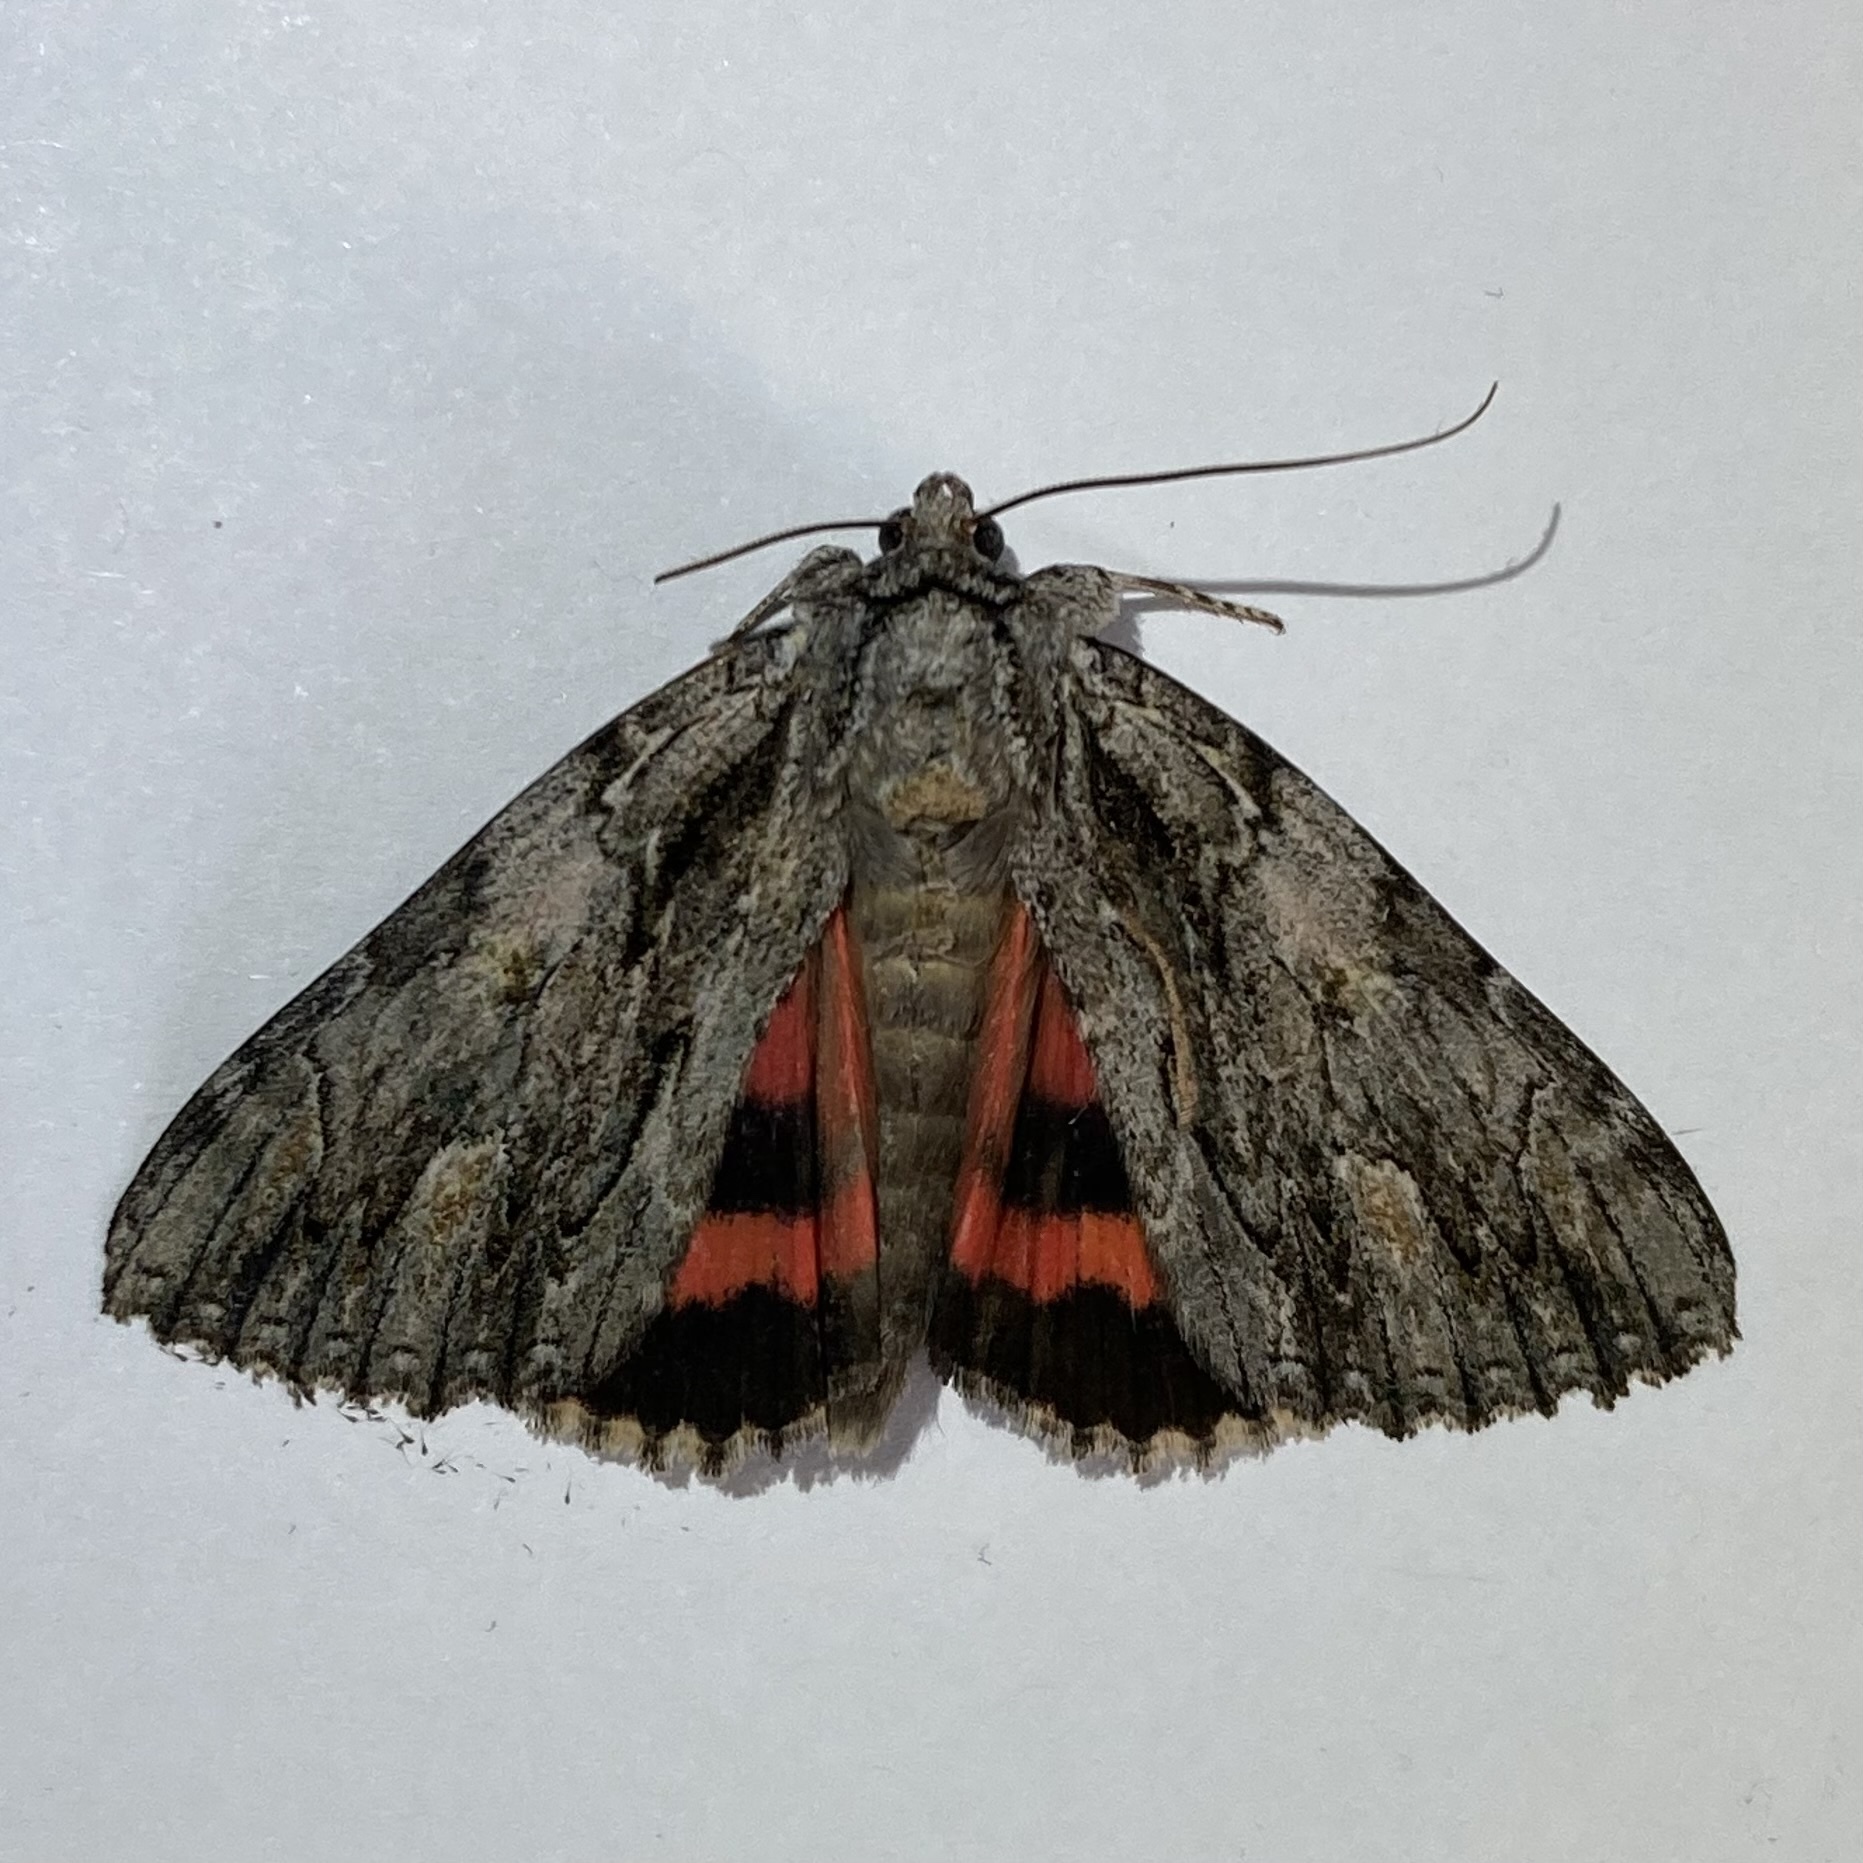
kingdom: Animalia
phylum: Arthropoda
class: Insecta
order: Lepidoptera
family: Erebidae
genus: Catocala
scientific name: Catocala coccinata
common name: Scarlet underwing
